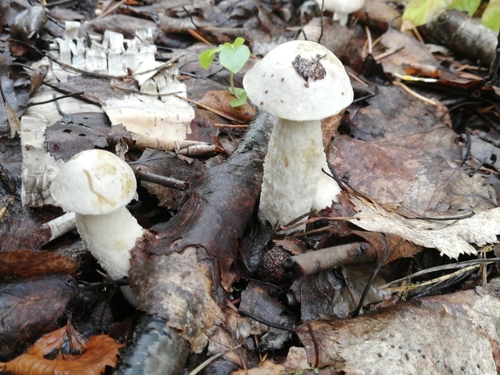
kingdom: Fungi
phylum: Basidiomycota
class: Agaricomycetes
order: Boletales
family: Boletaceae
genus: Leccinum
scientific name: Leccinum
